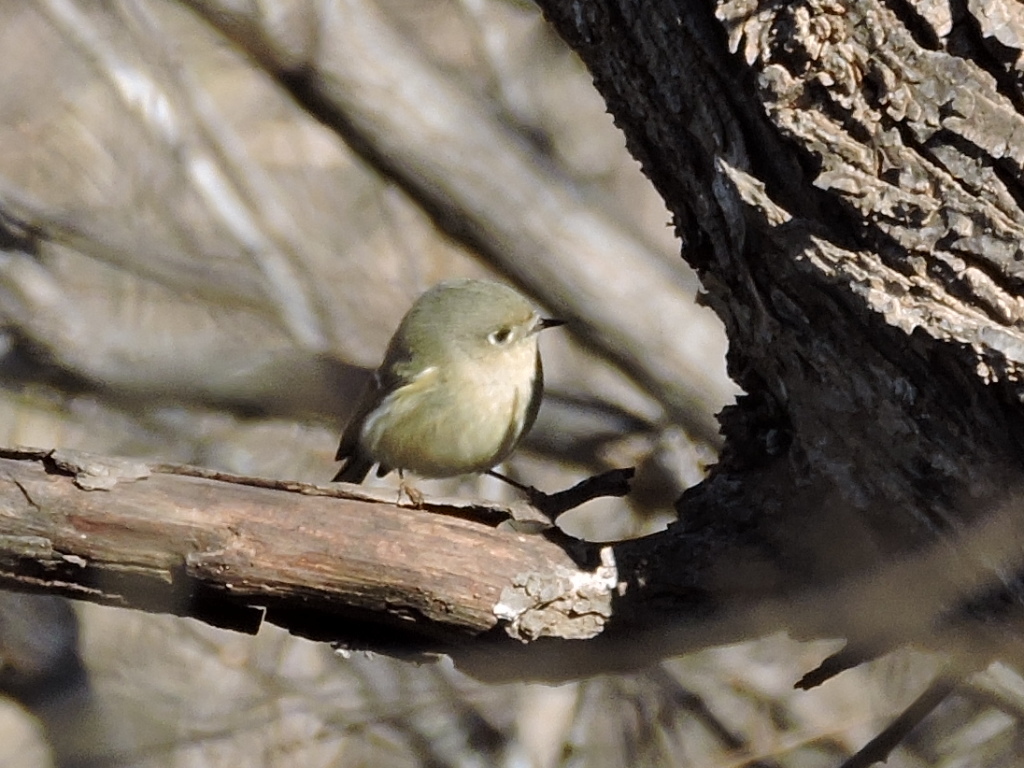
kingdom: Animalia
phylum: Chordata
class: Aves
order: Passeriformes
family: Regulidae
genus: Regulus
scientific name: Regulus calendula
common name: Ruby-crowned kinglet
